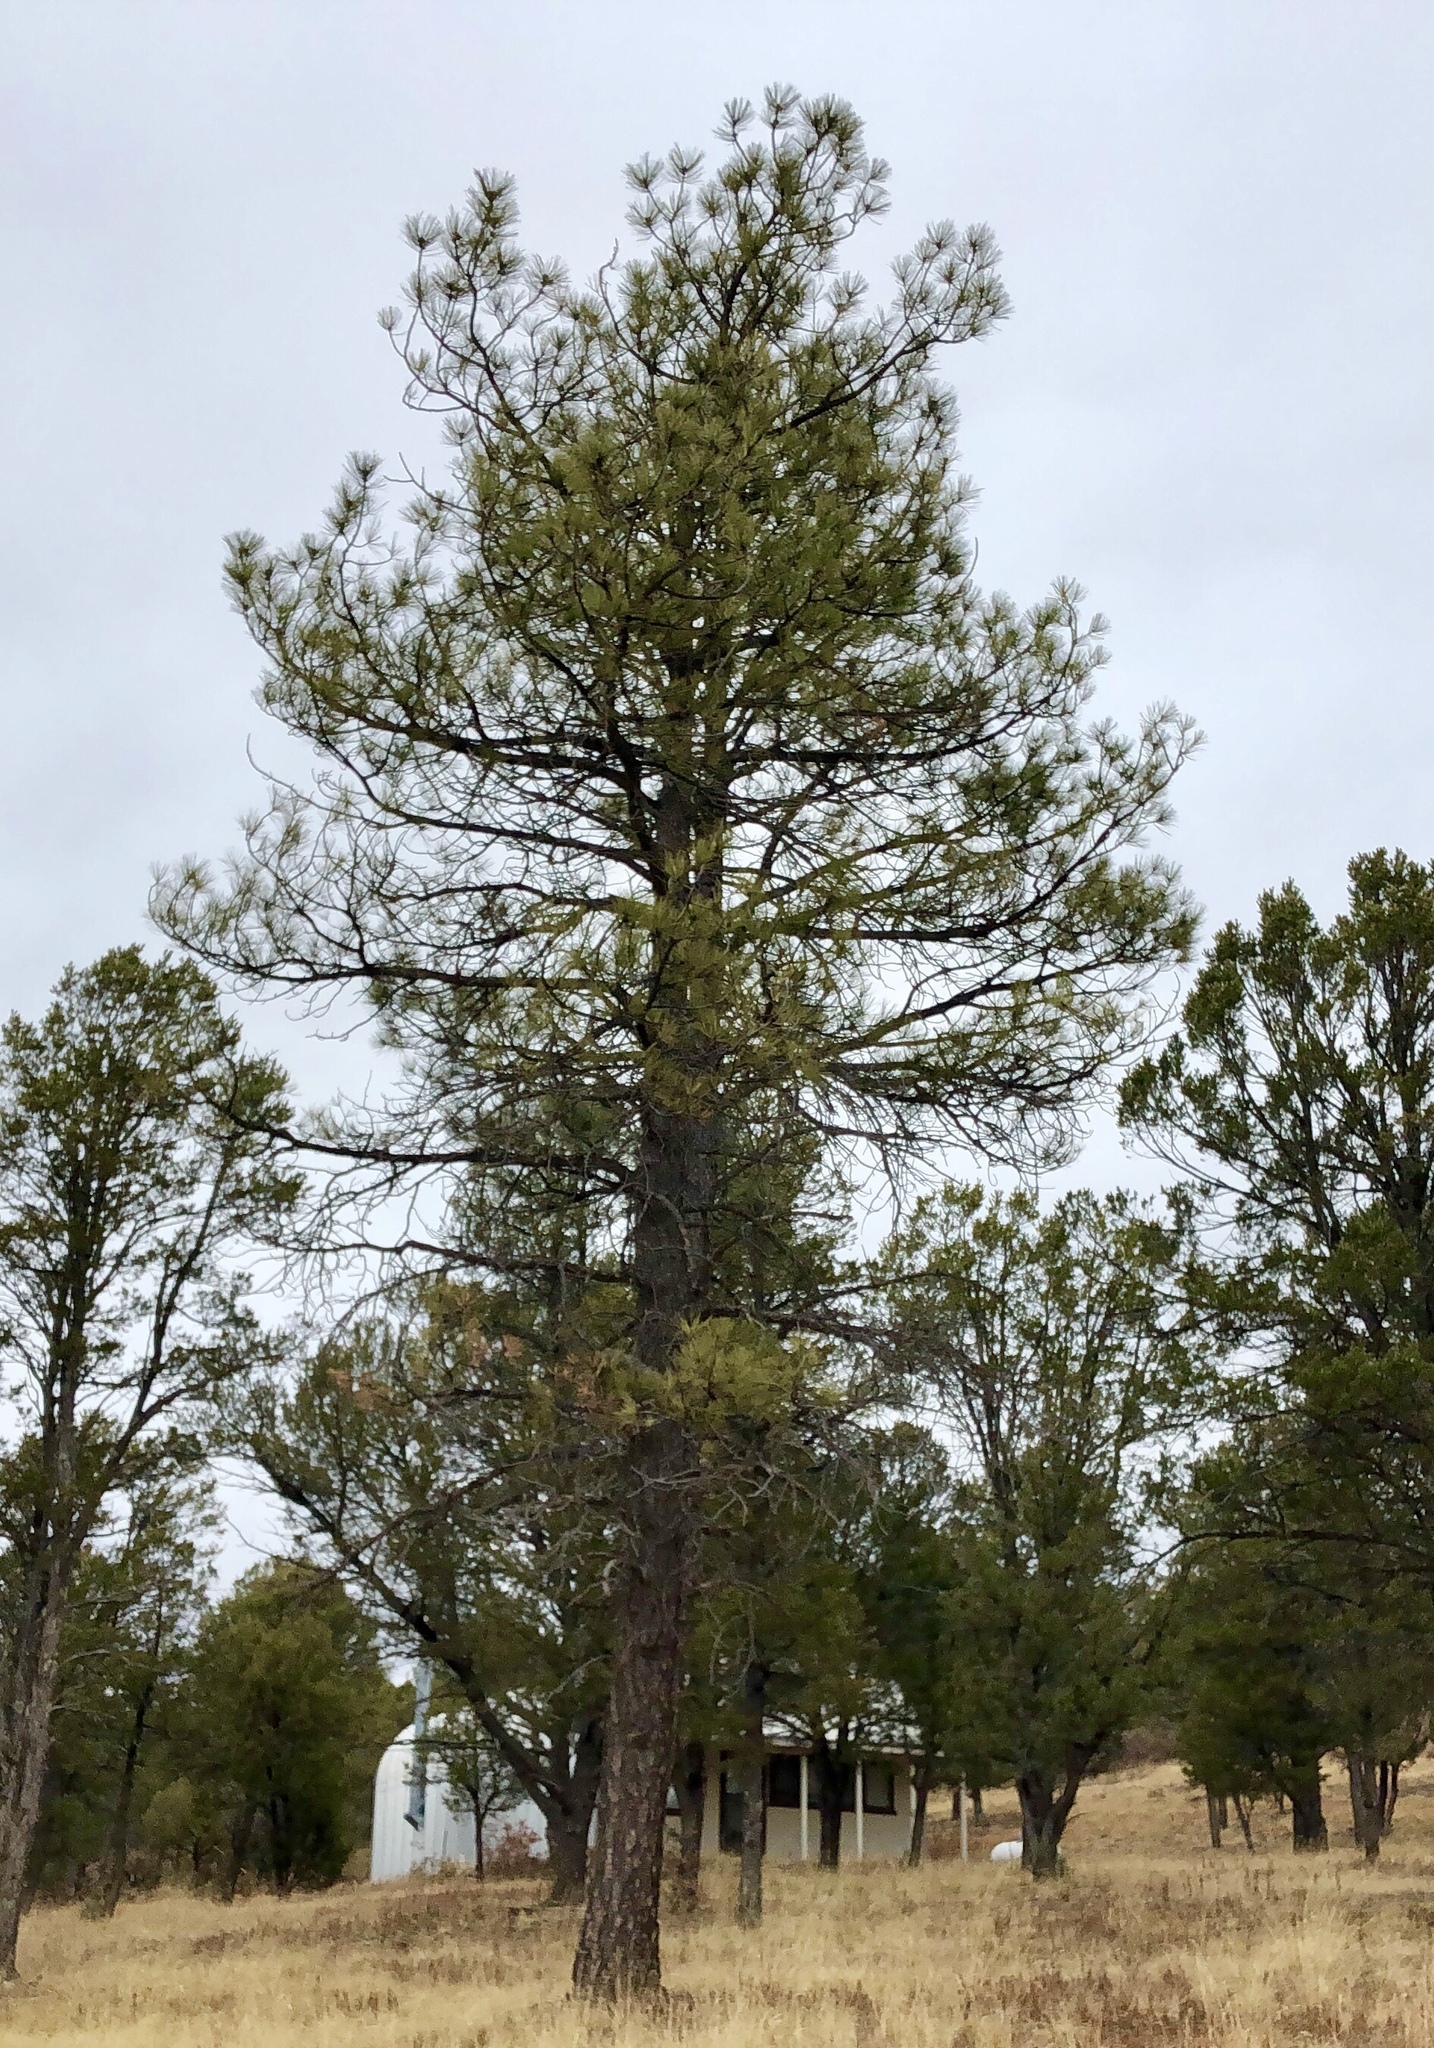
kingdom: Plantae
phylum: Tracheophyta
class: Pinopsida
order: Pinales
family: Pinaceae
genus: Pinus
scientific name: Pinus ponderosa
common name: Western yellow-pine
